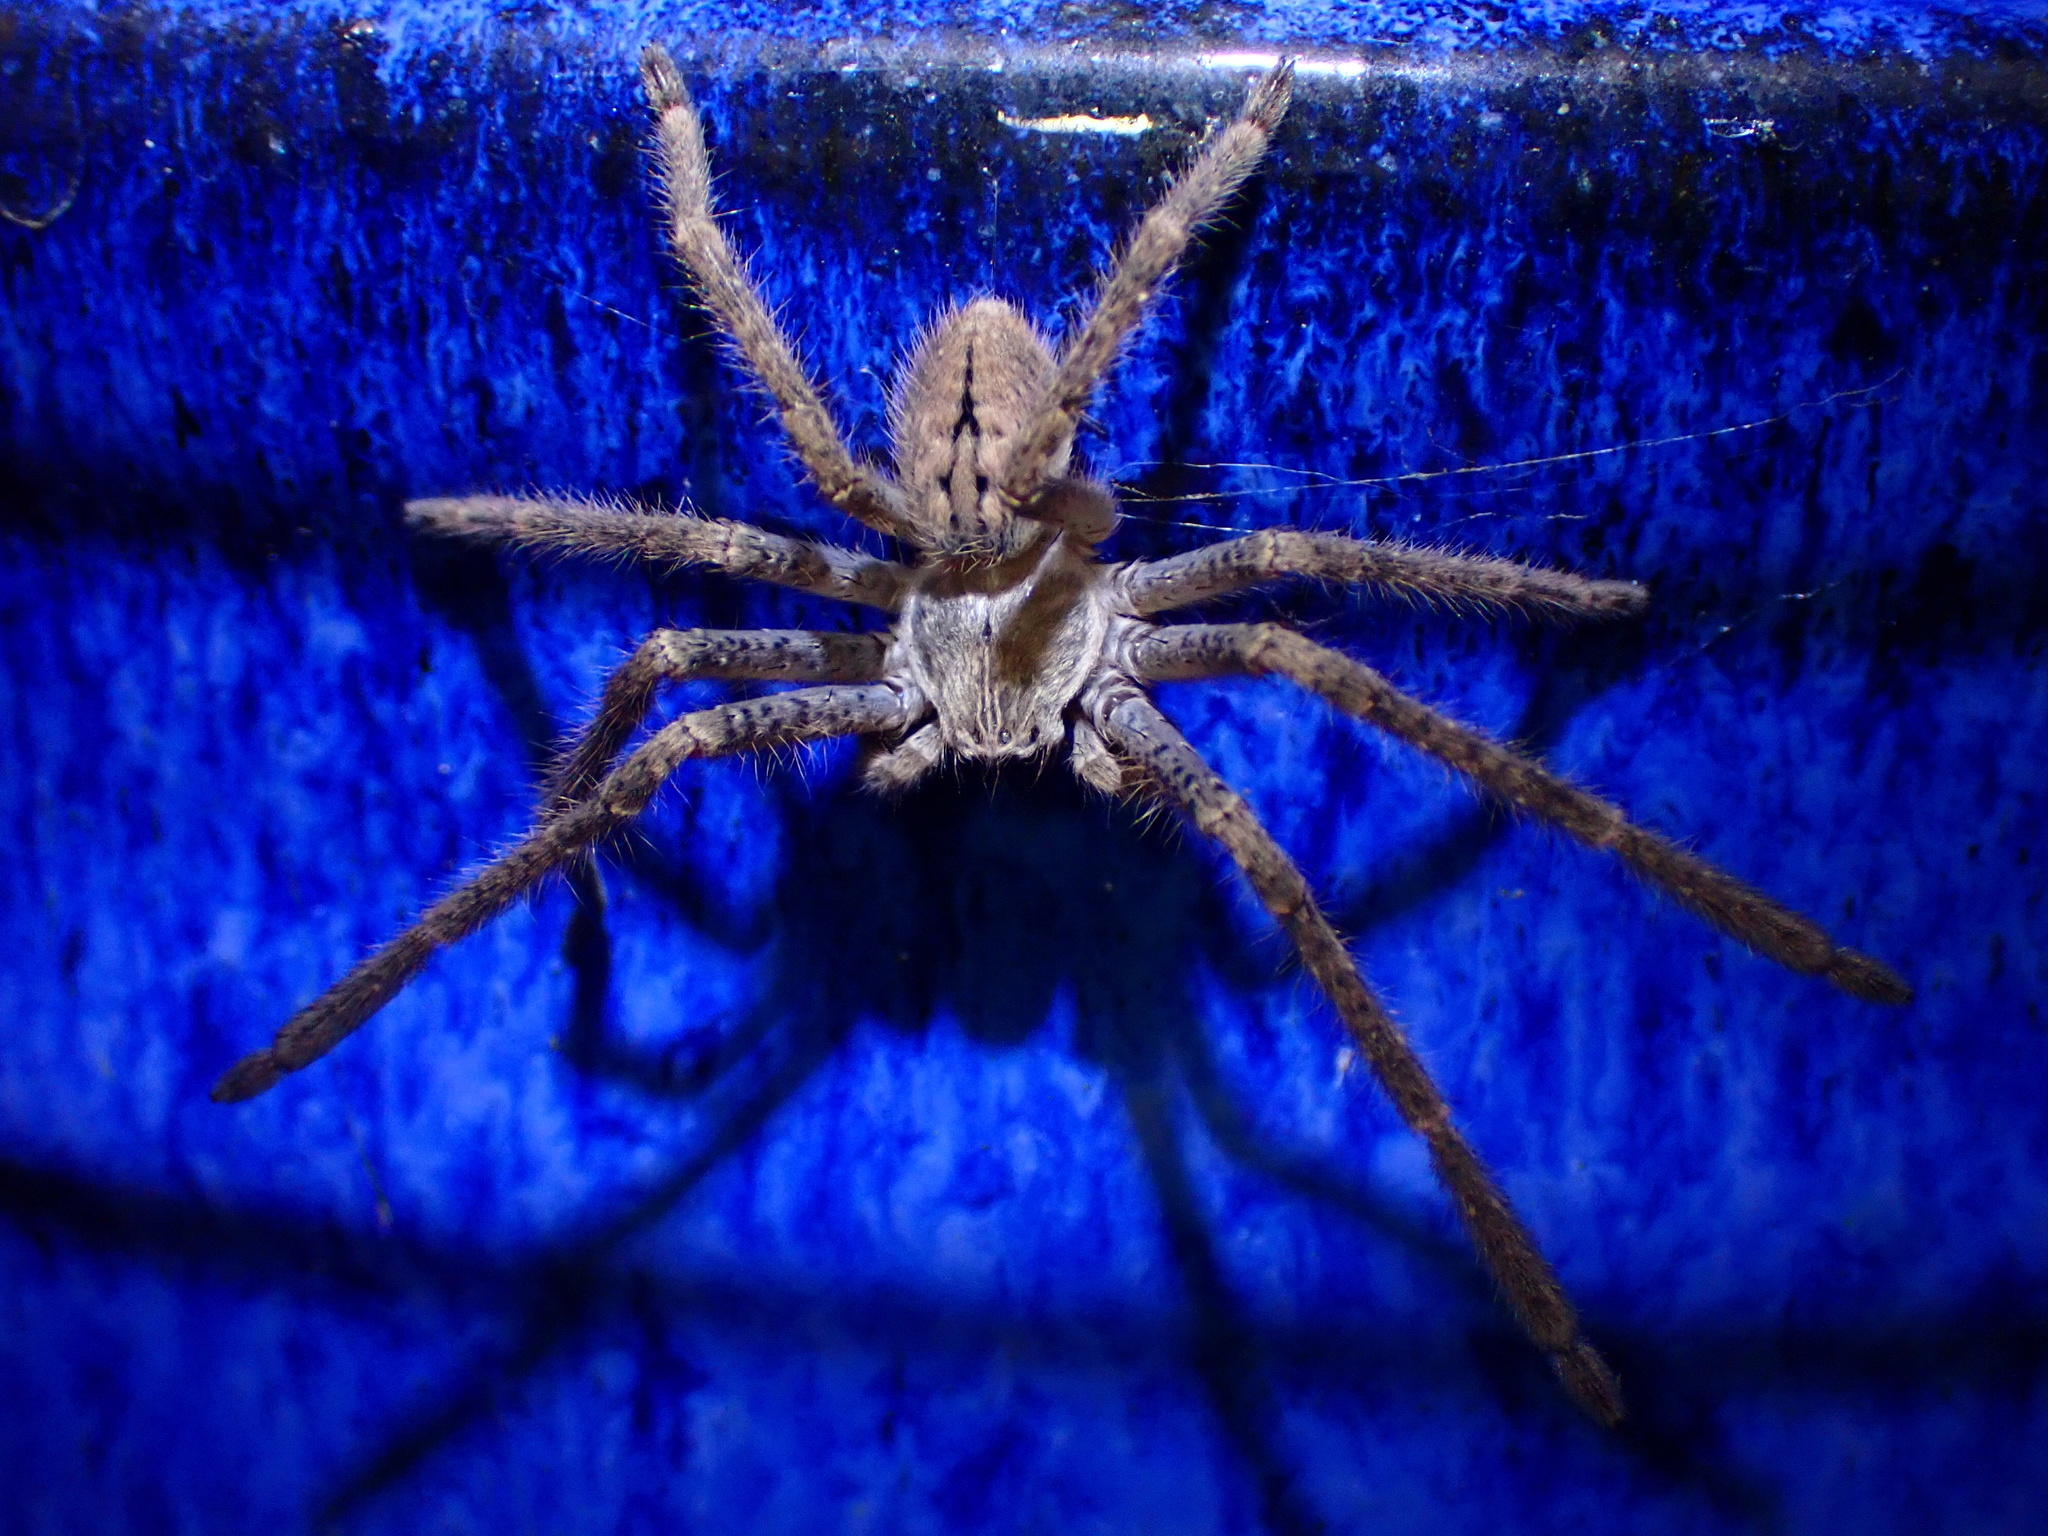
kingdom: Animalia
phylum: Arthropoda
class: Arachnida
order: Araneae
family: Sparassidae
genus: Olios
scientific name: Olios giganteus
